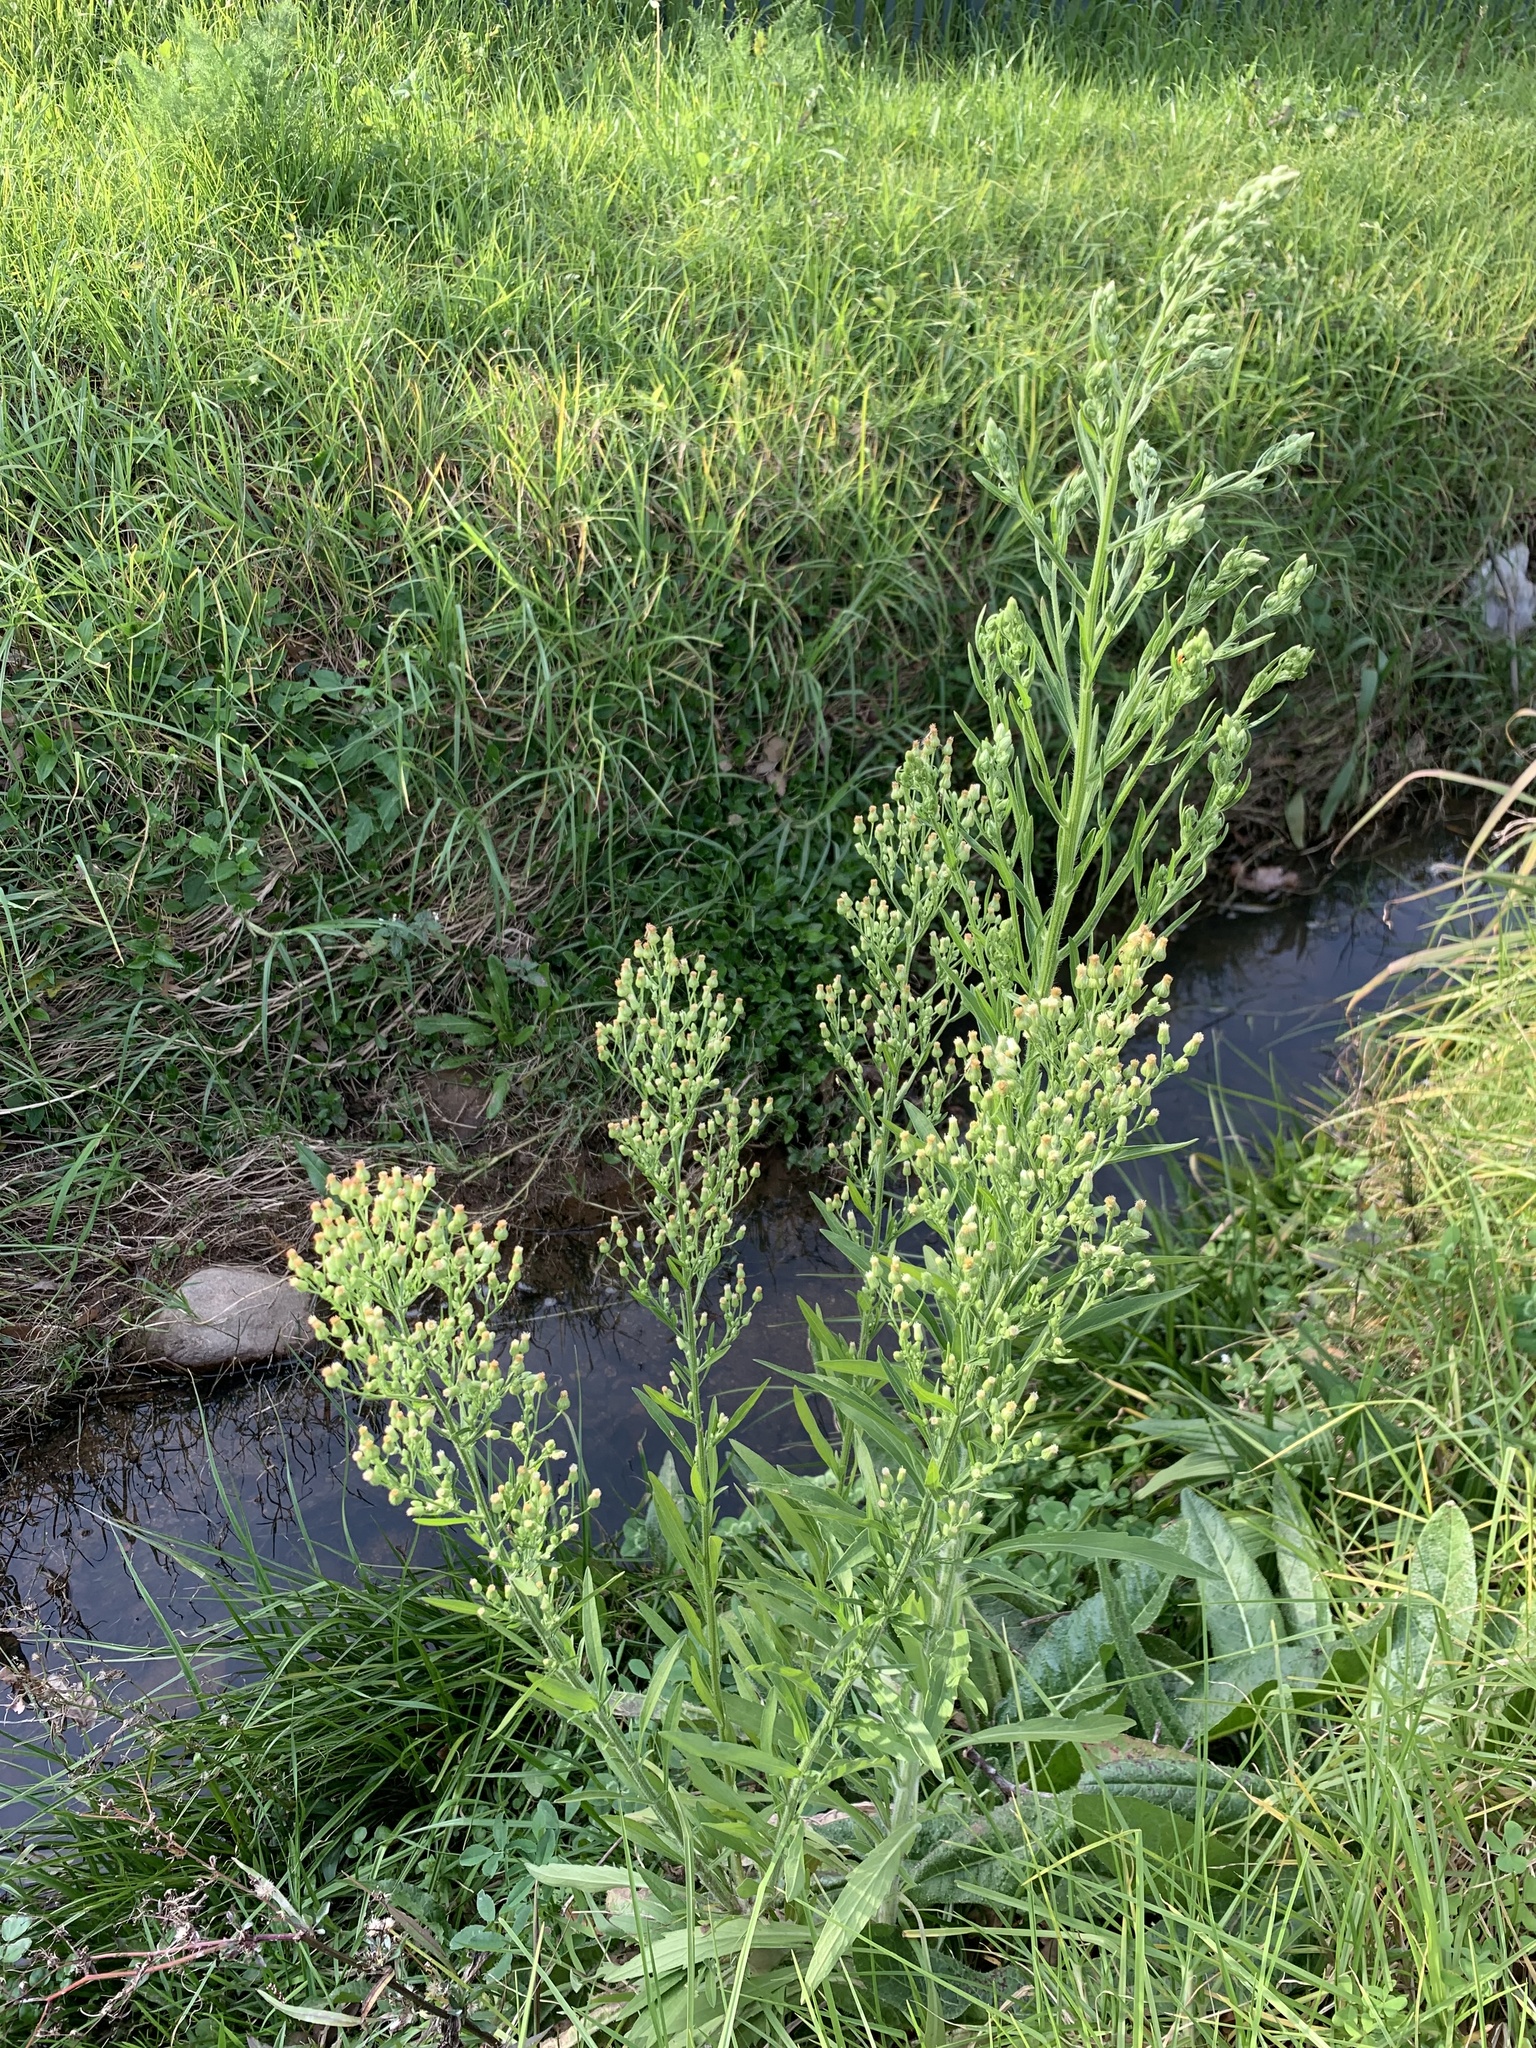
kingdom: Plantae
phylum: Tracheophyta
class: Magnoliopsida
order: Asterales
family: Asteraceae
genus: Erigeron
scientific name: Erigeron sumatrensis
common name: Daisy
